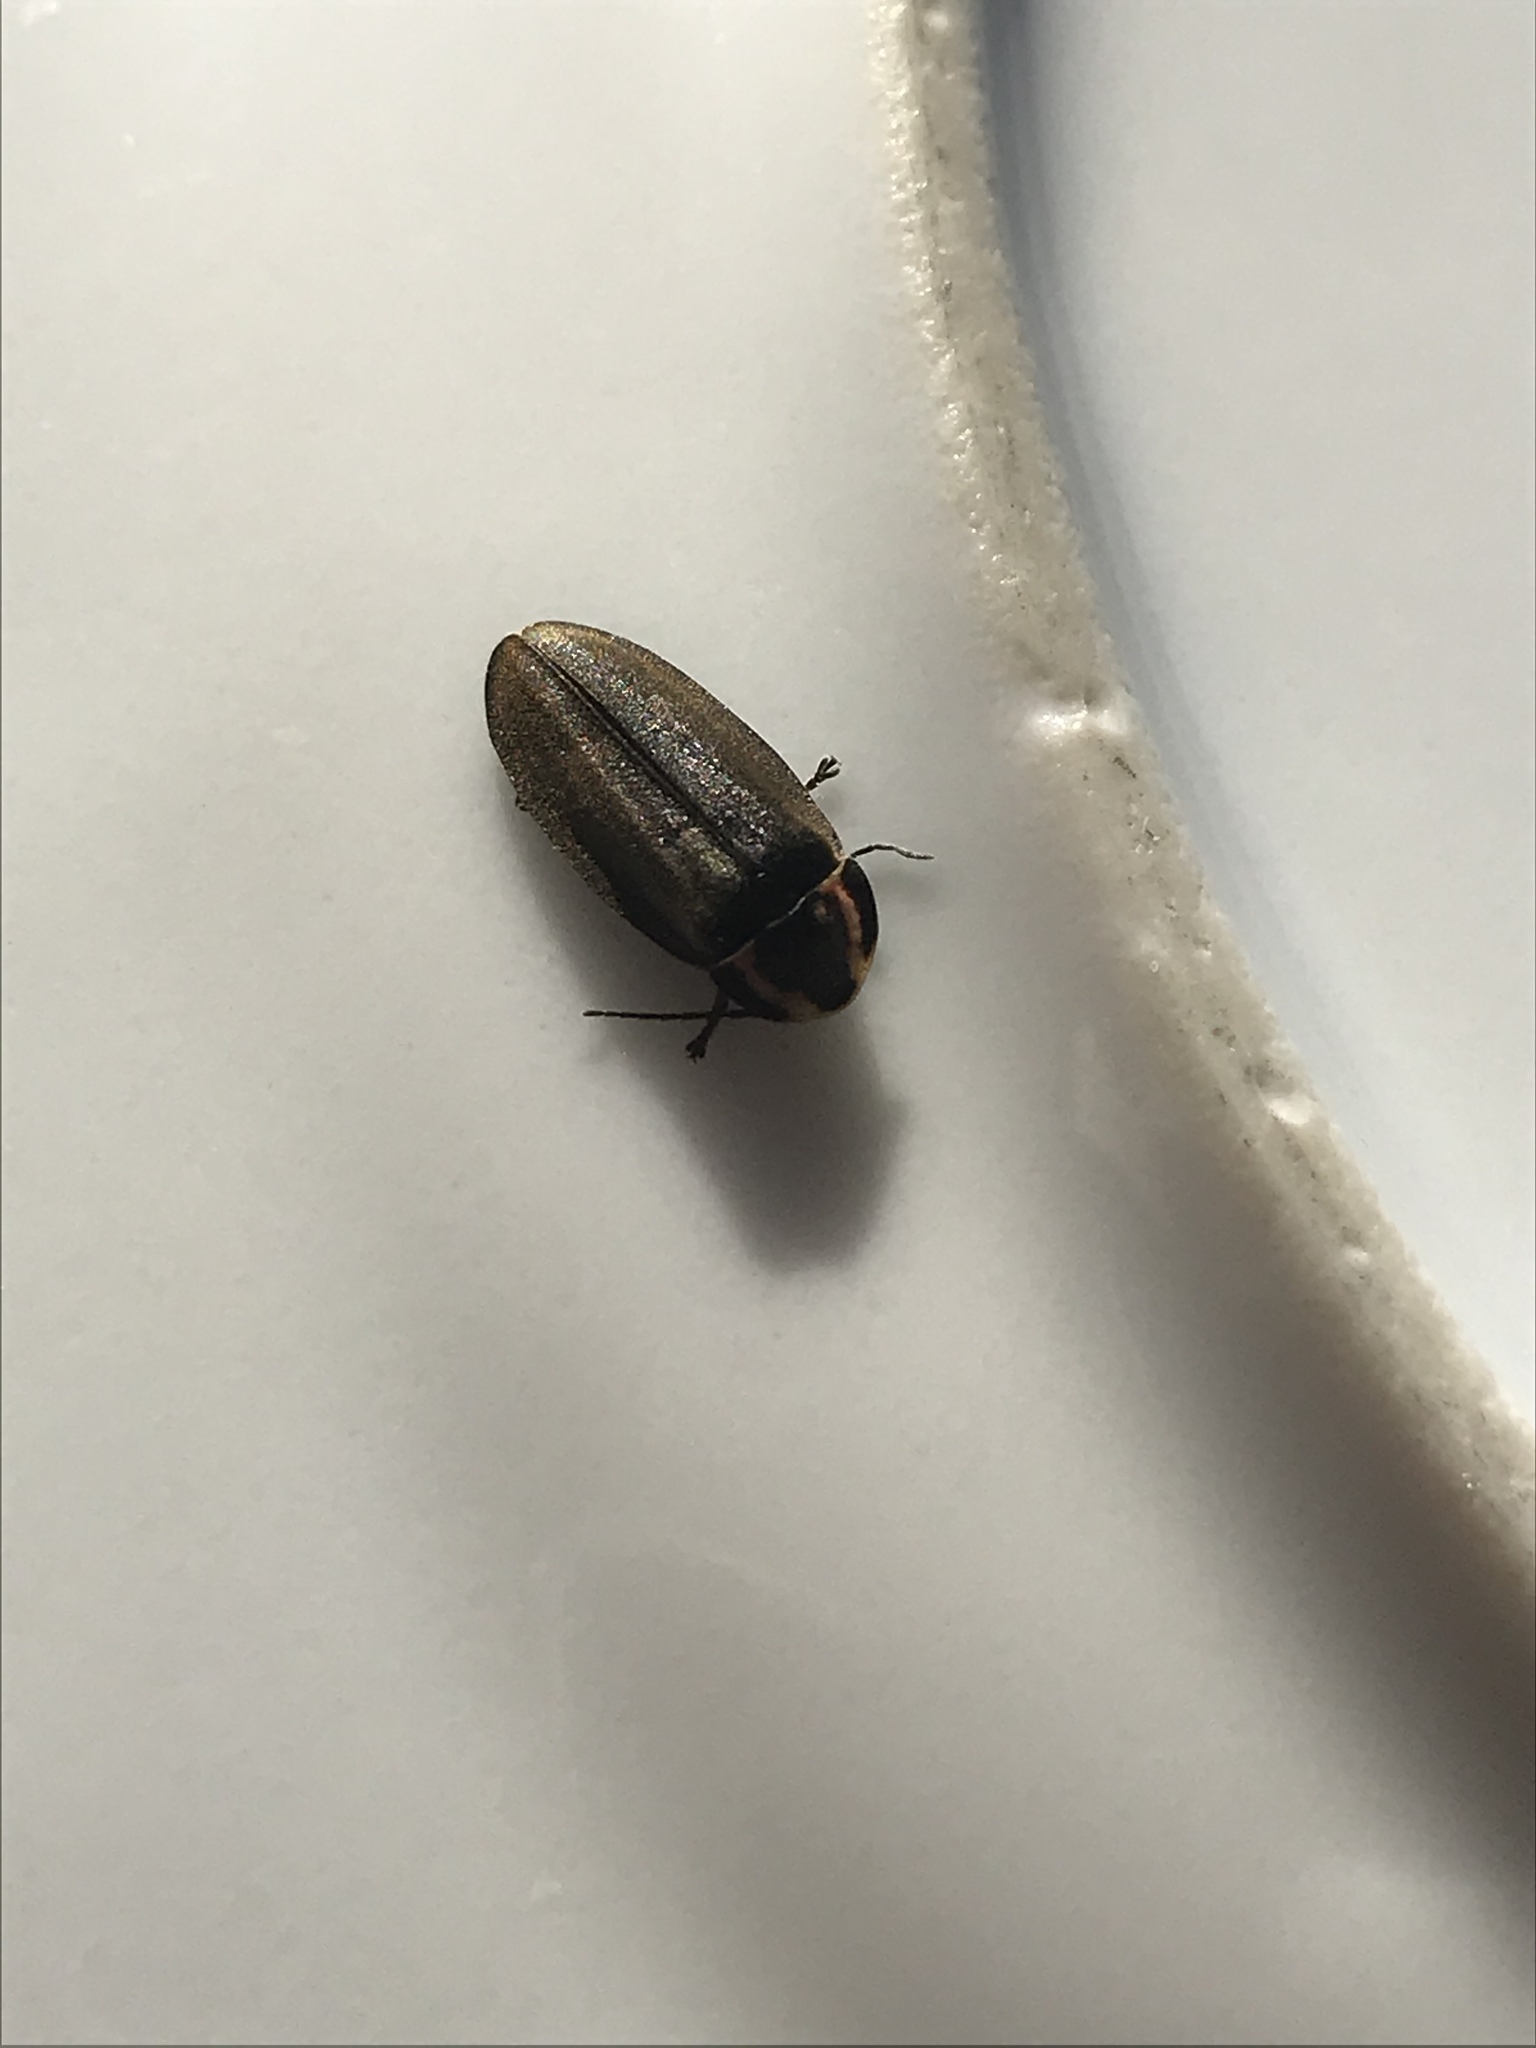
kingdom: Animalia
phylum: Arthropoda
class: Insecta
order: Coleoptera
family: Lampyridae
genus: Photinus
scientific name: Photinus corrusca
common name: Winter firefly
